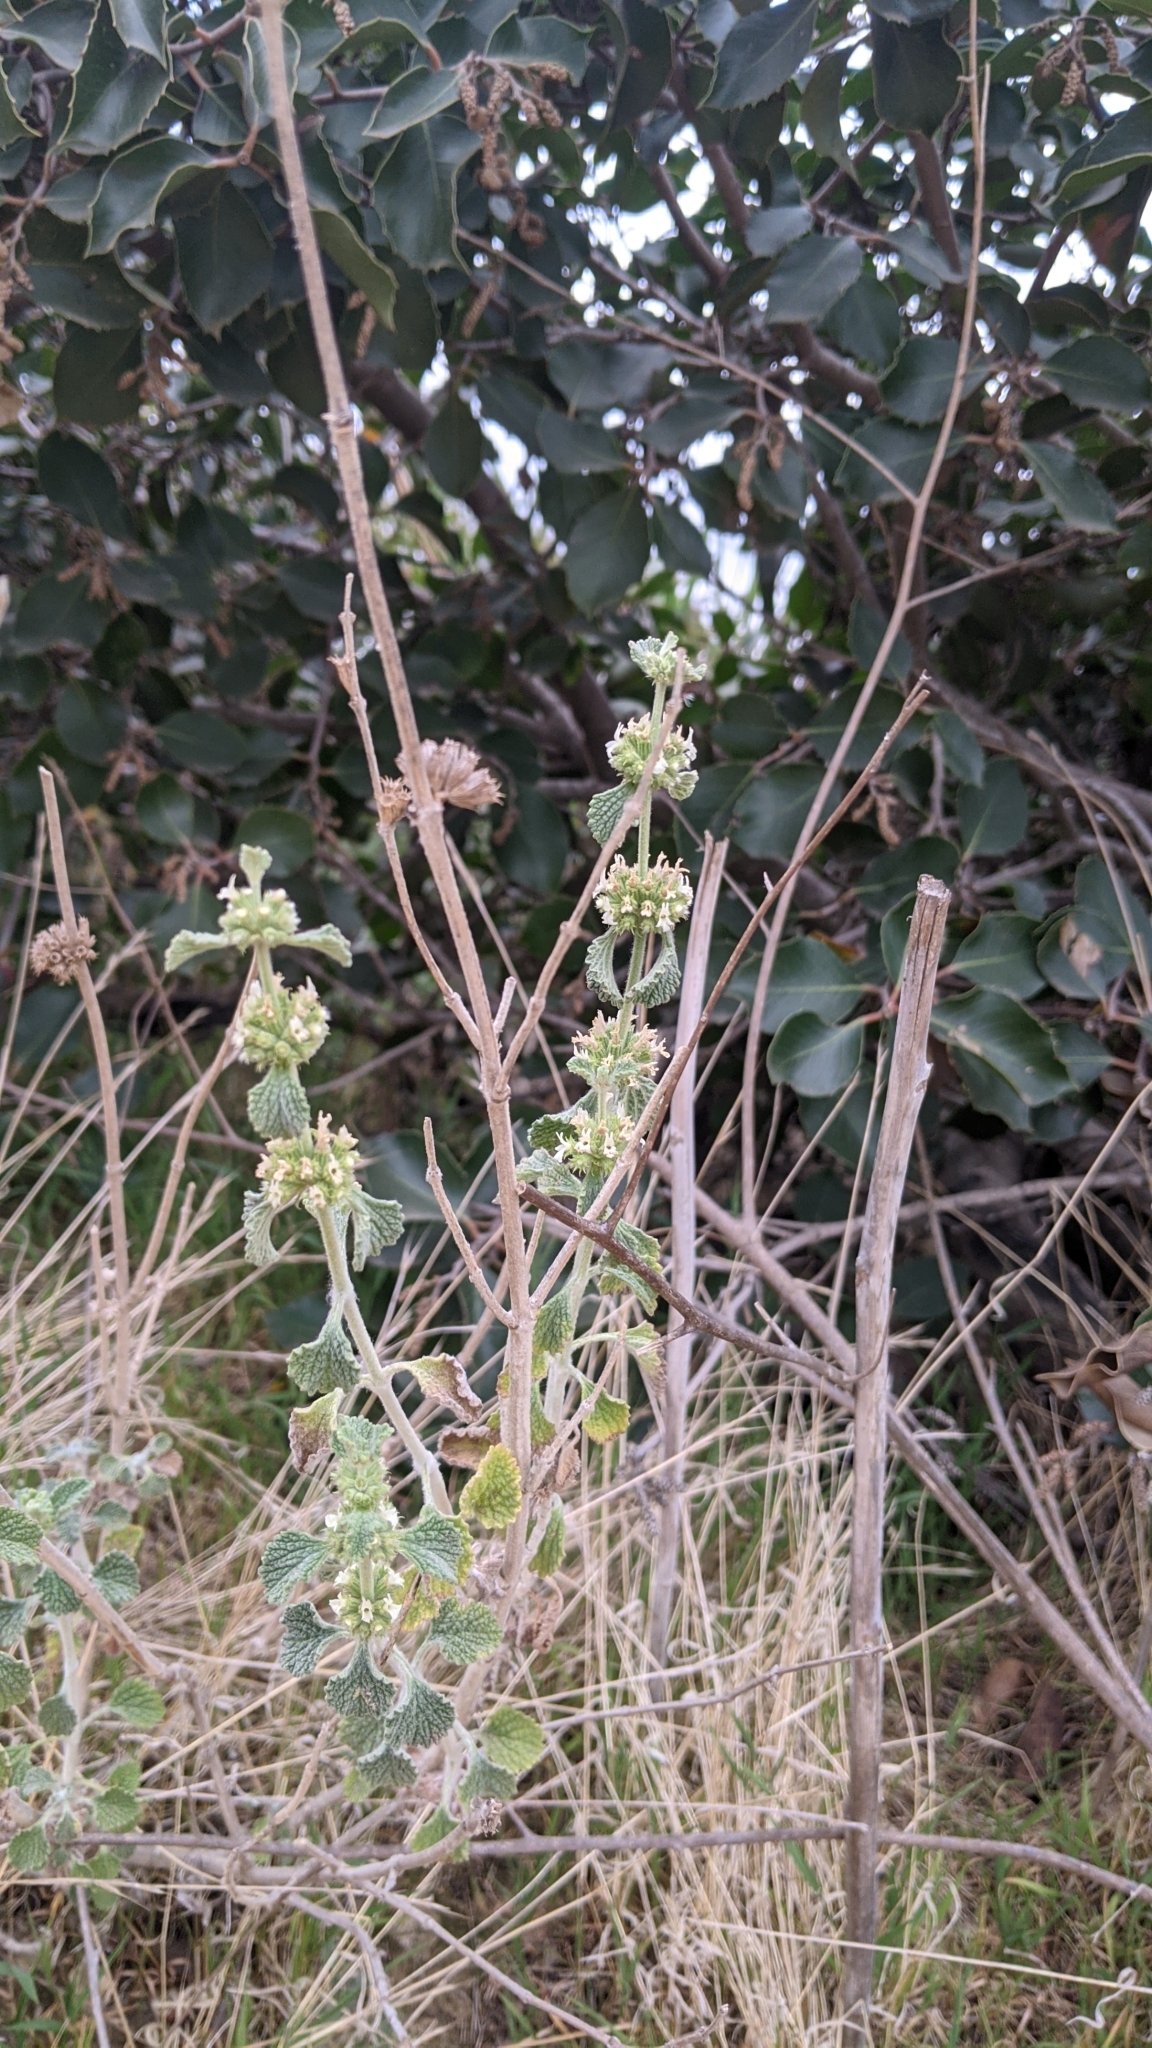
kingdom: Plantae
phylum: Tracheophyta
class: Magnoliopsida
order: Lamiales
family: Lamiaceae
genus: Marrubium
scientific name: Marrubium vulgare
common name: Horehound
